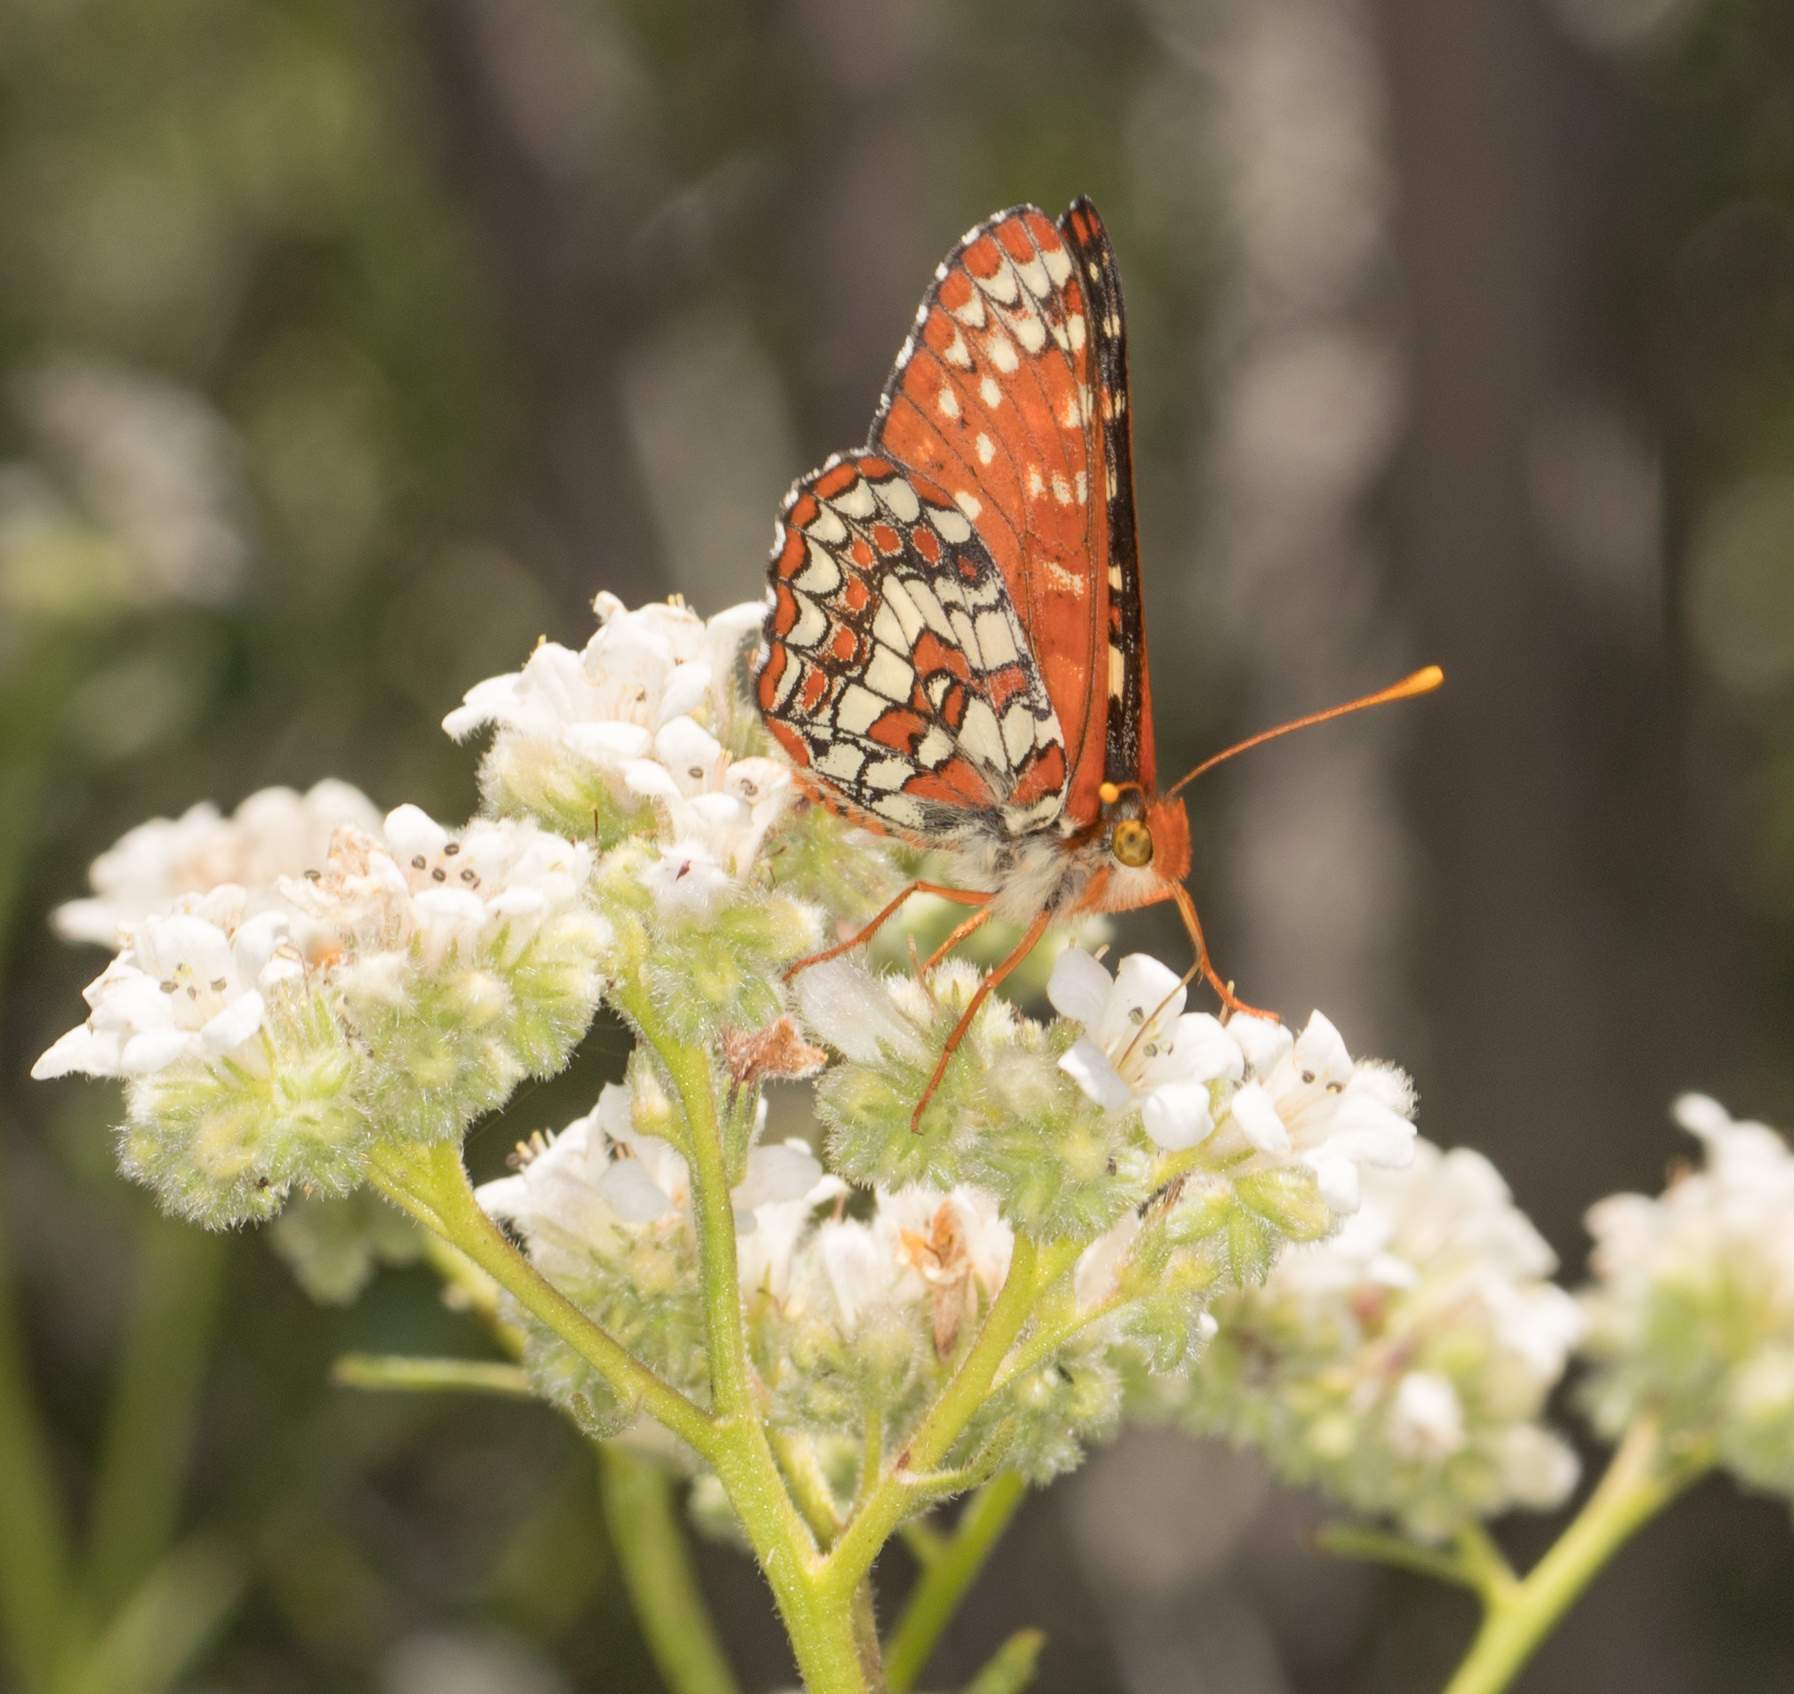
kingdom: Animalia
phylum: Arthropoda
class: Insecta
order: Lepidoptera
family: Nymphalidae
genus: Occidryas
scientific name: Occidryas chalcedona
